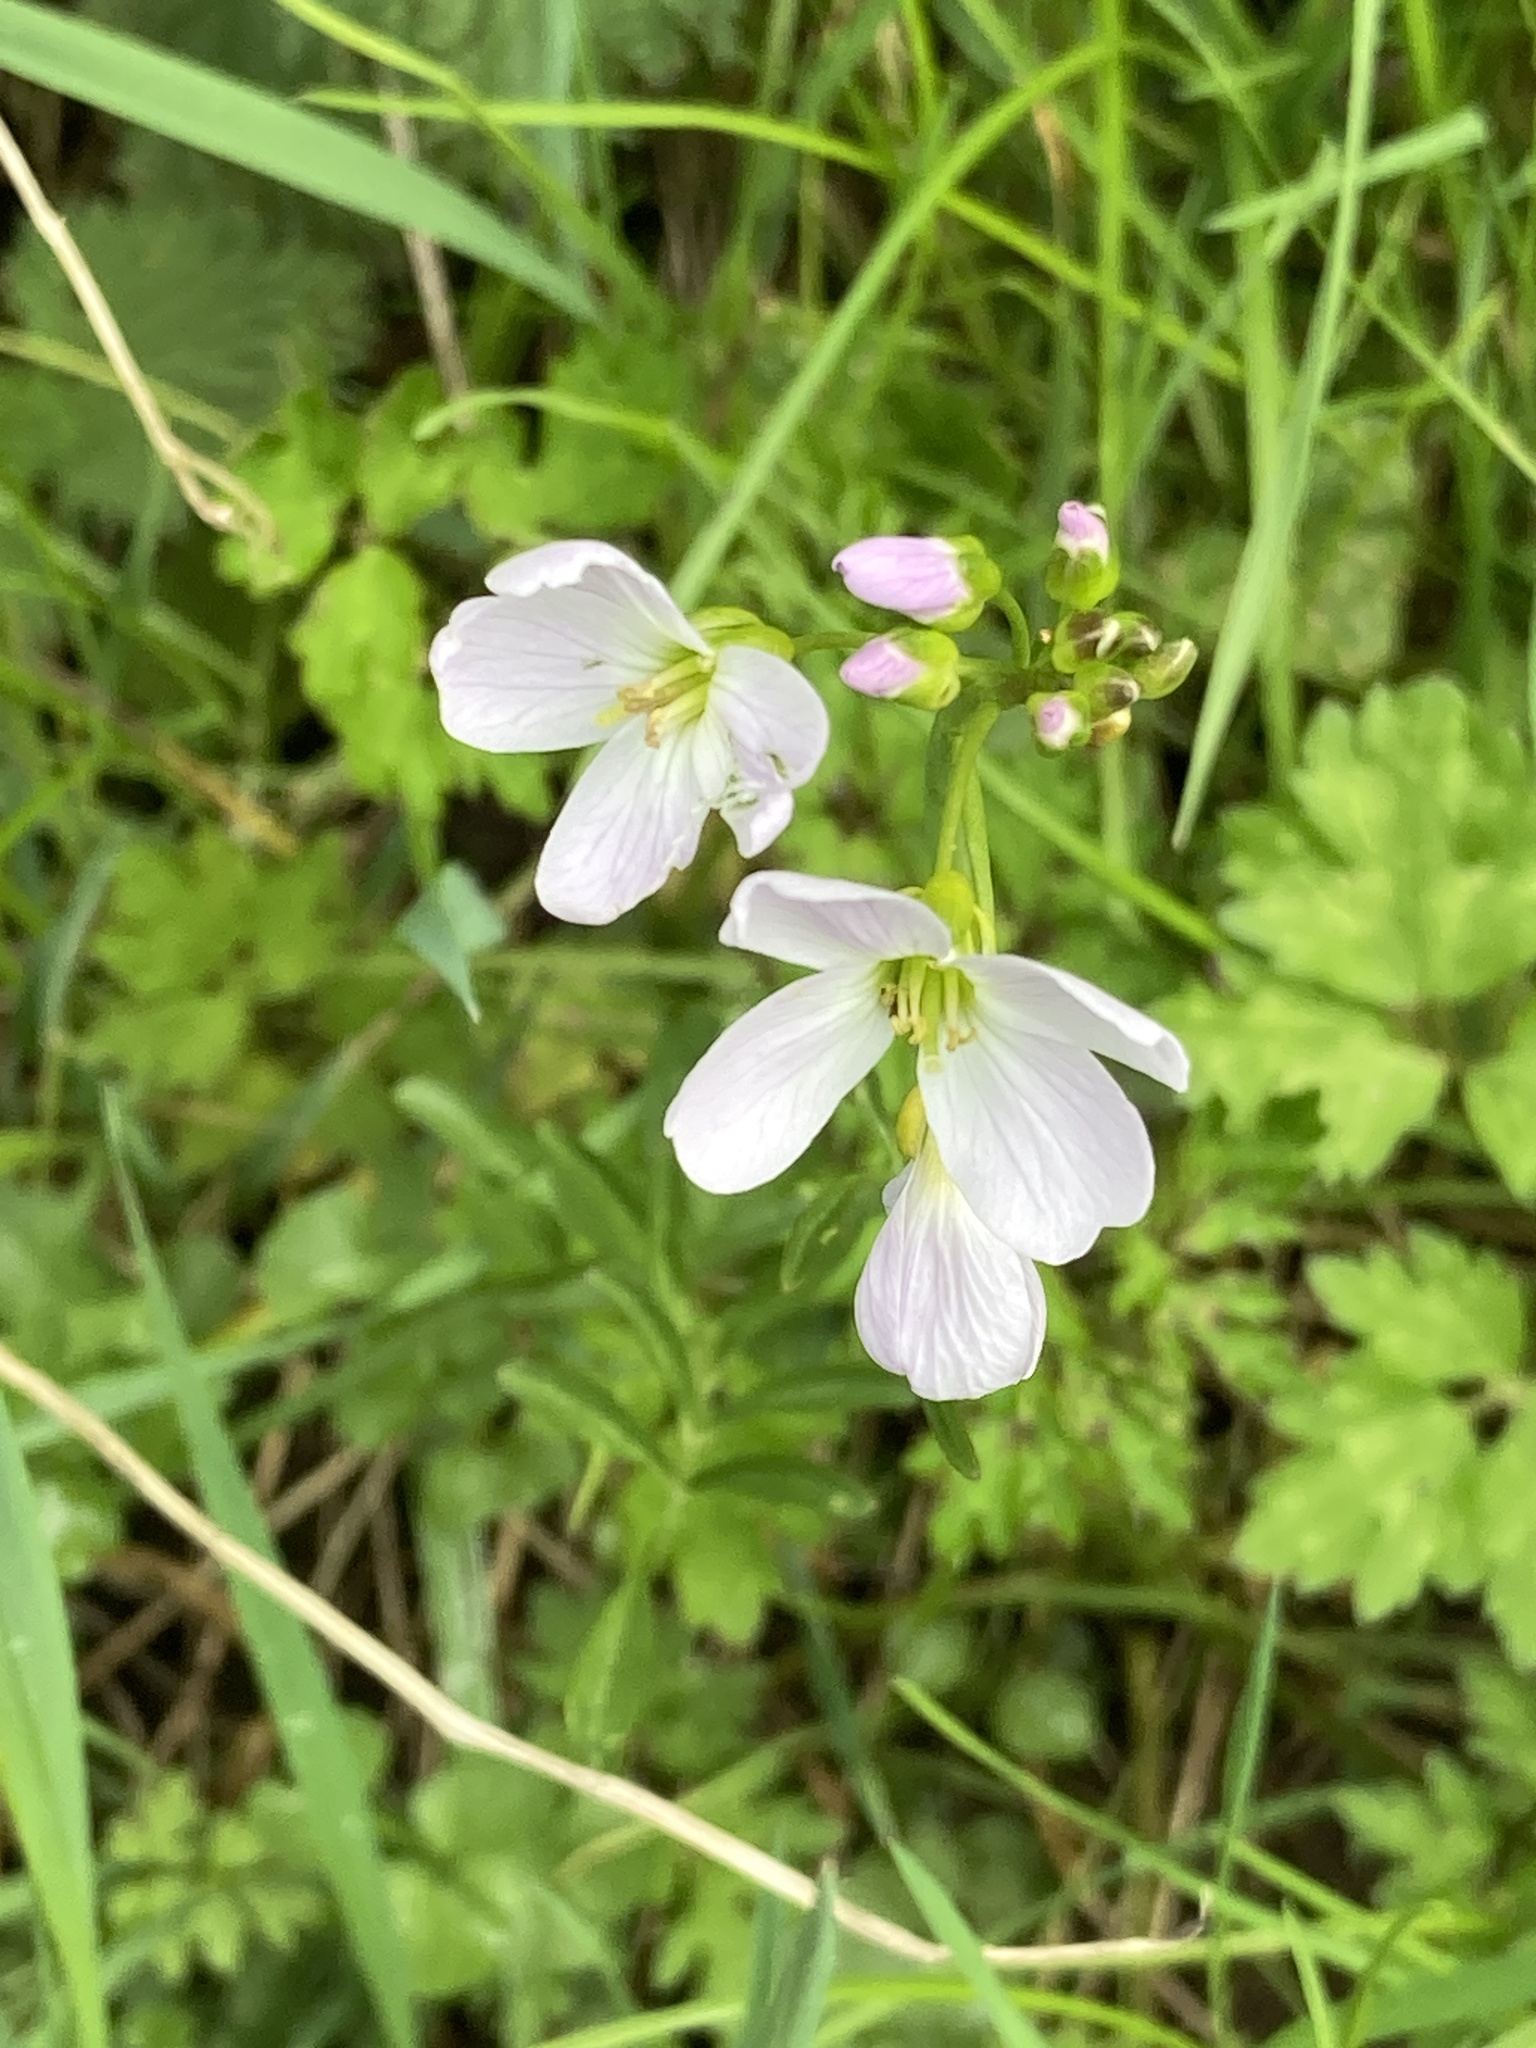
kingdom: Plantae
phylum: Tracheophyta
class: Magnoliopsida
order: Brassicales
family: Brassicaceae
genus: Cardamine
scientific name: Cardamine pratensis
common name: Cuckoo flower
